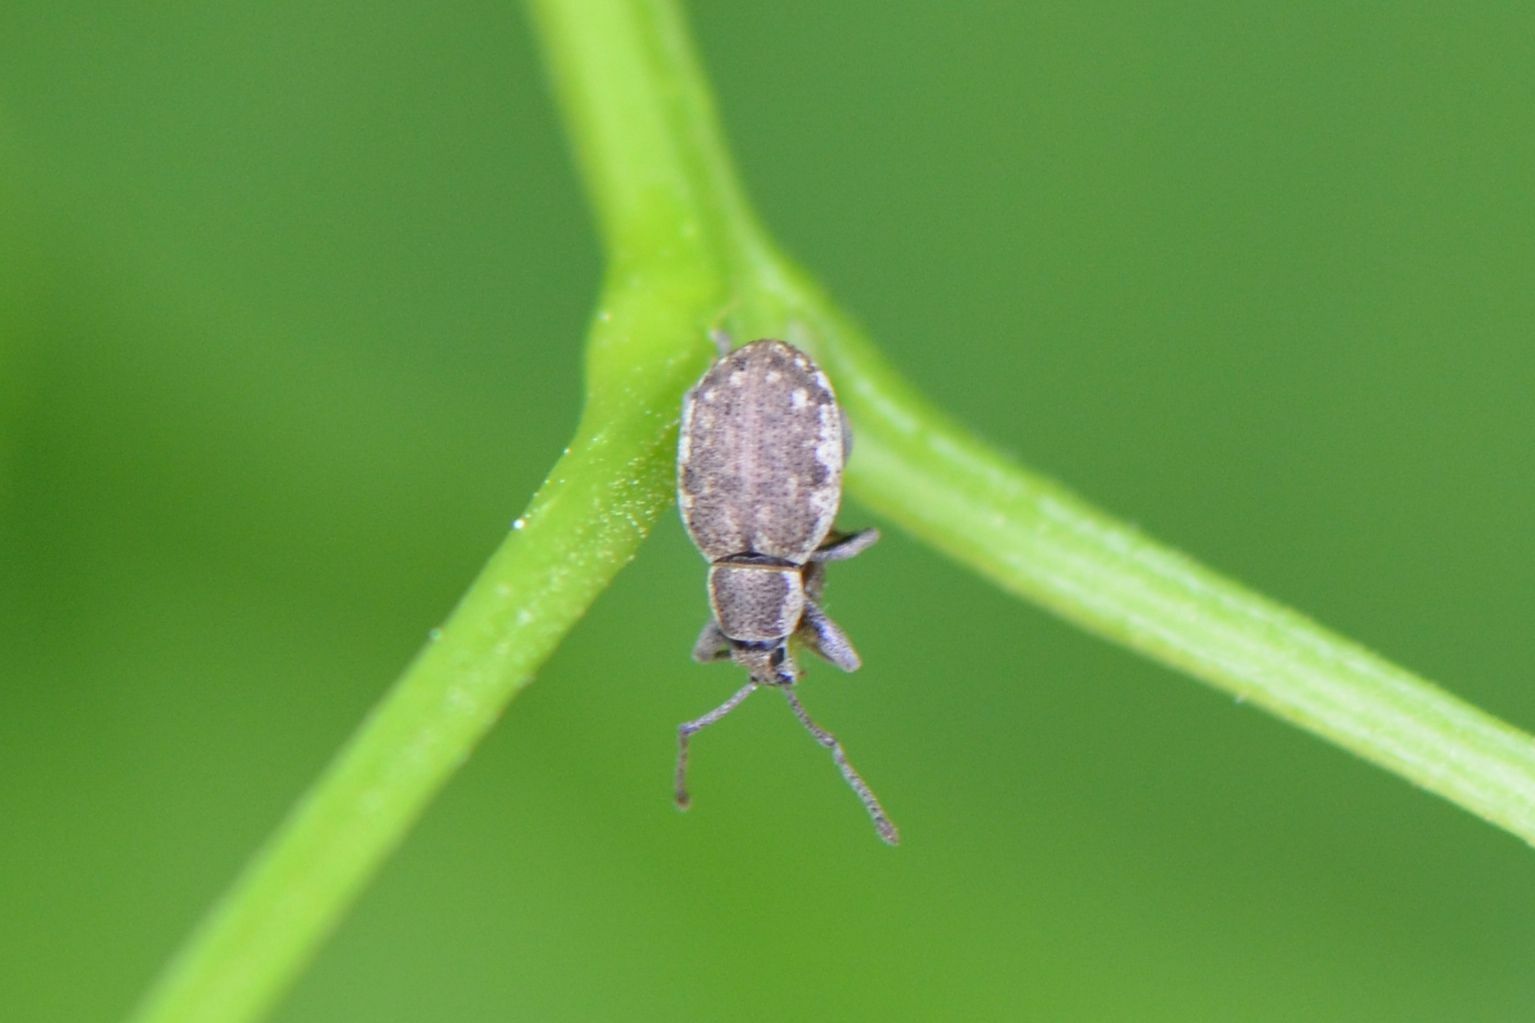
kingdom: Animalia
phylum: Arthropoda
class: Insecta
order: Coleoptera
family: Curculionidae
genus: Peritelus
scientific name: Peritelus sphaeroides
